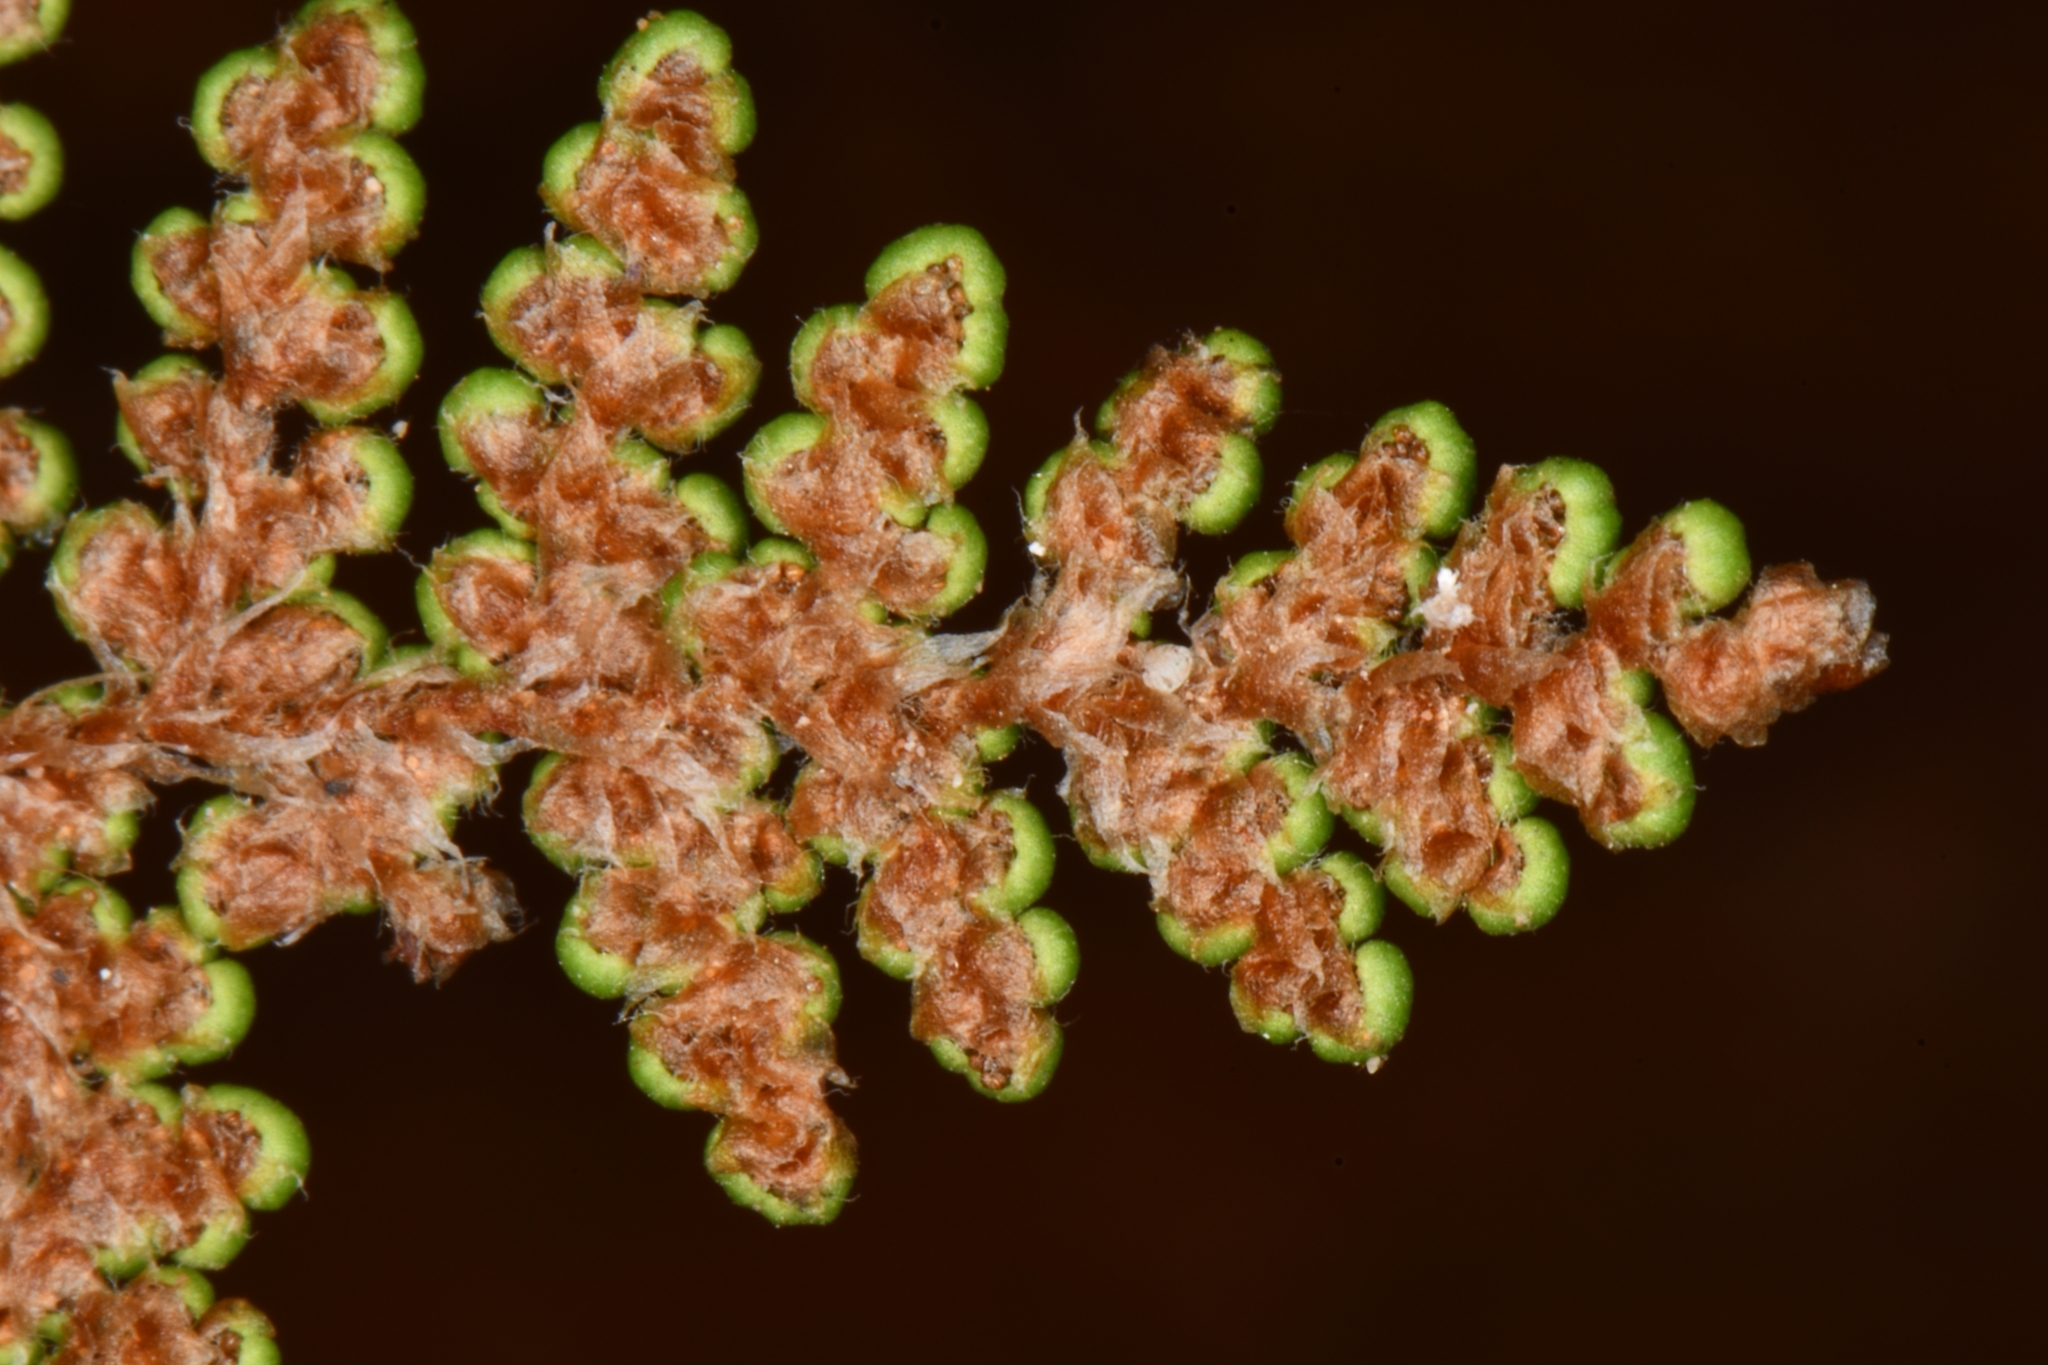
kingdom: Plantae
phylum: Tracheophyta
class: Polypodiopsida
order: Polypodiales
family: Pteridaceae
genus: Myriopteris
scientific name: Myriopteris covillei
